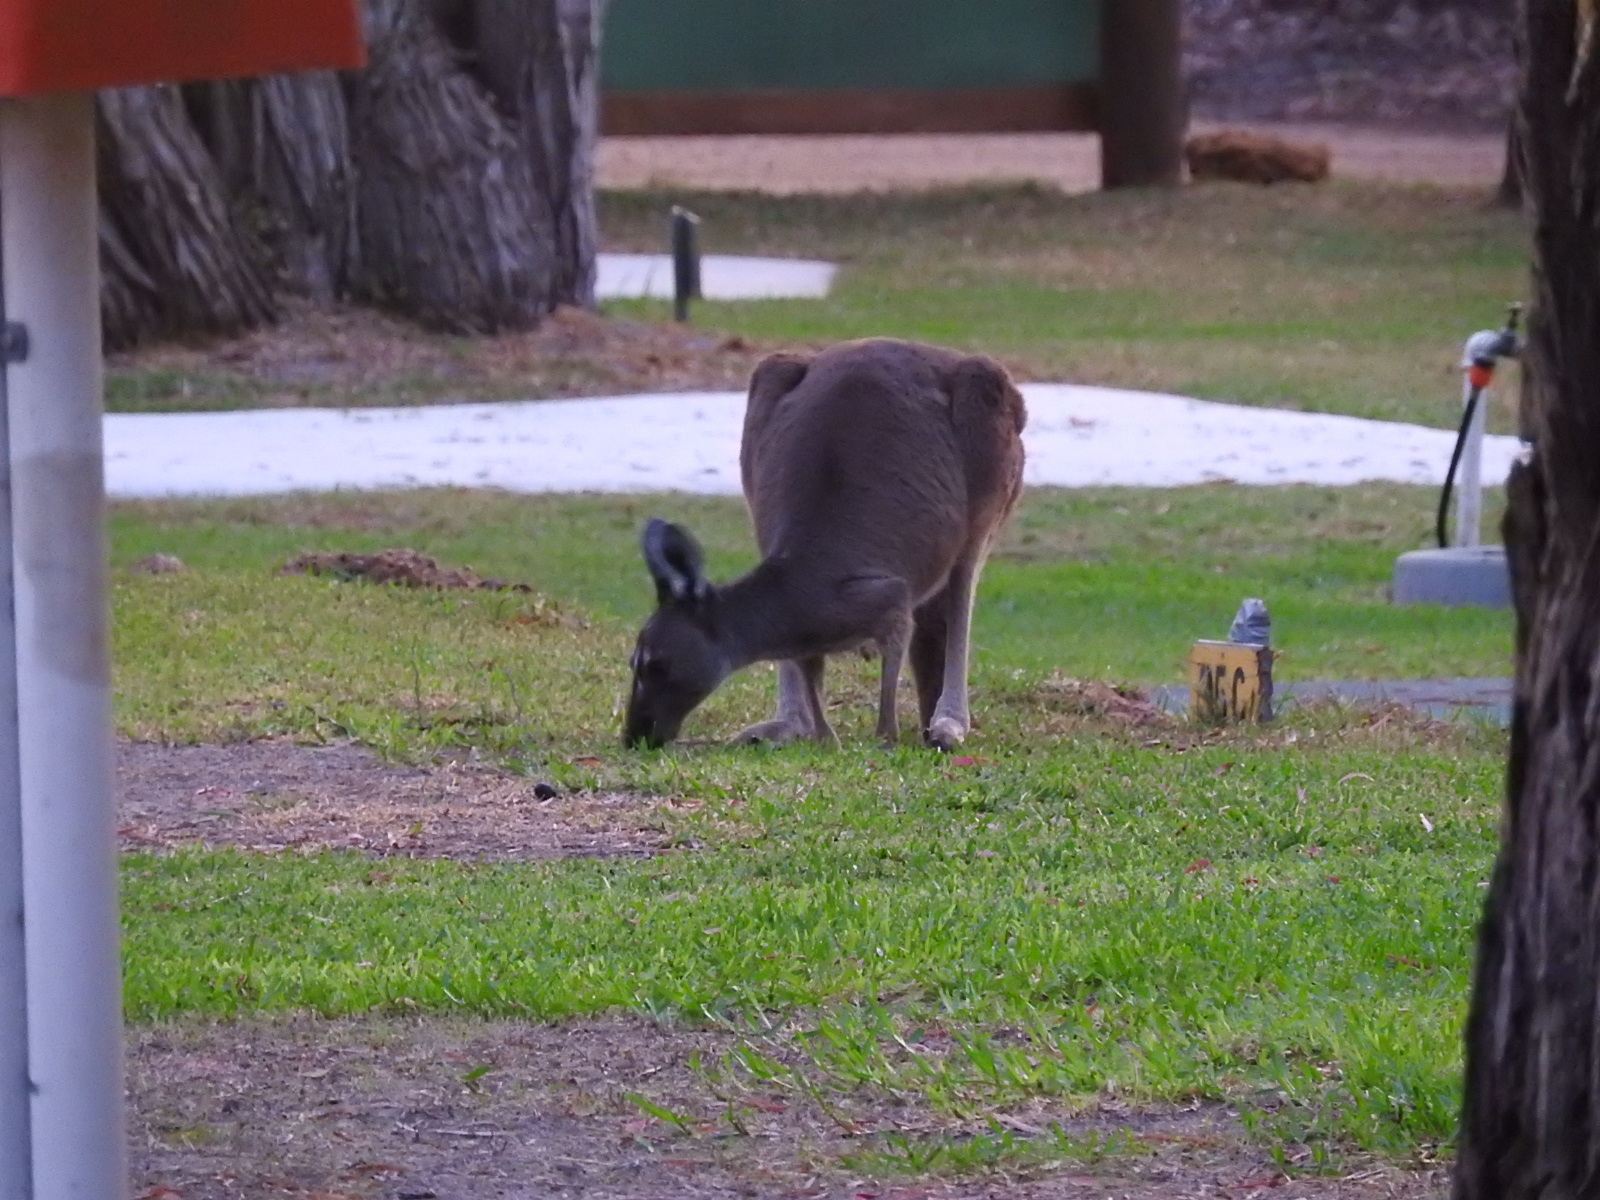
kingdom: Animalia
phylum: Chordata
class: Mammalia
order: Diprotodontia
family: Macropodidae
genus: Macropus
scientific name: Macropus fuliginosus
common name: Western grey kangaroo
